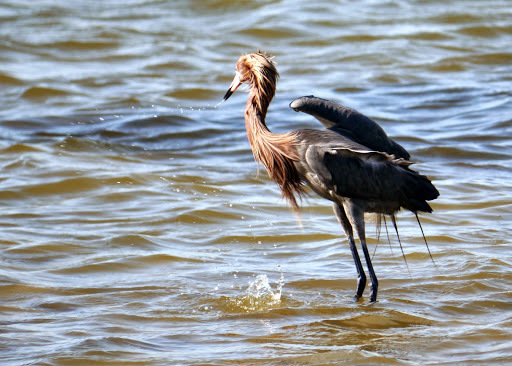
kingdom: Animalia
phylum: Chordata
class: Aves
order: Pelecaniformes
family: Ardeidae
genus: Egretta
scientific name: Egretta rufescens
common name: Reddish egret
